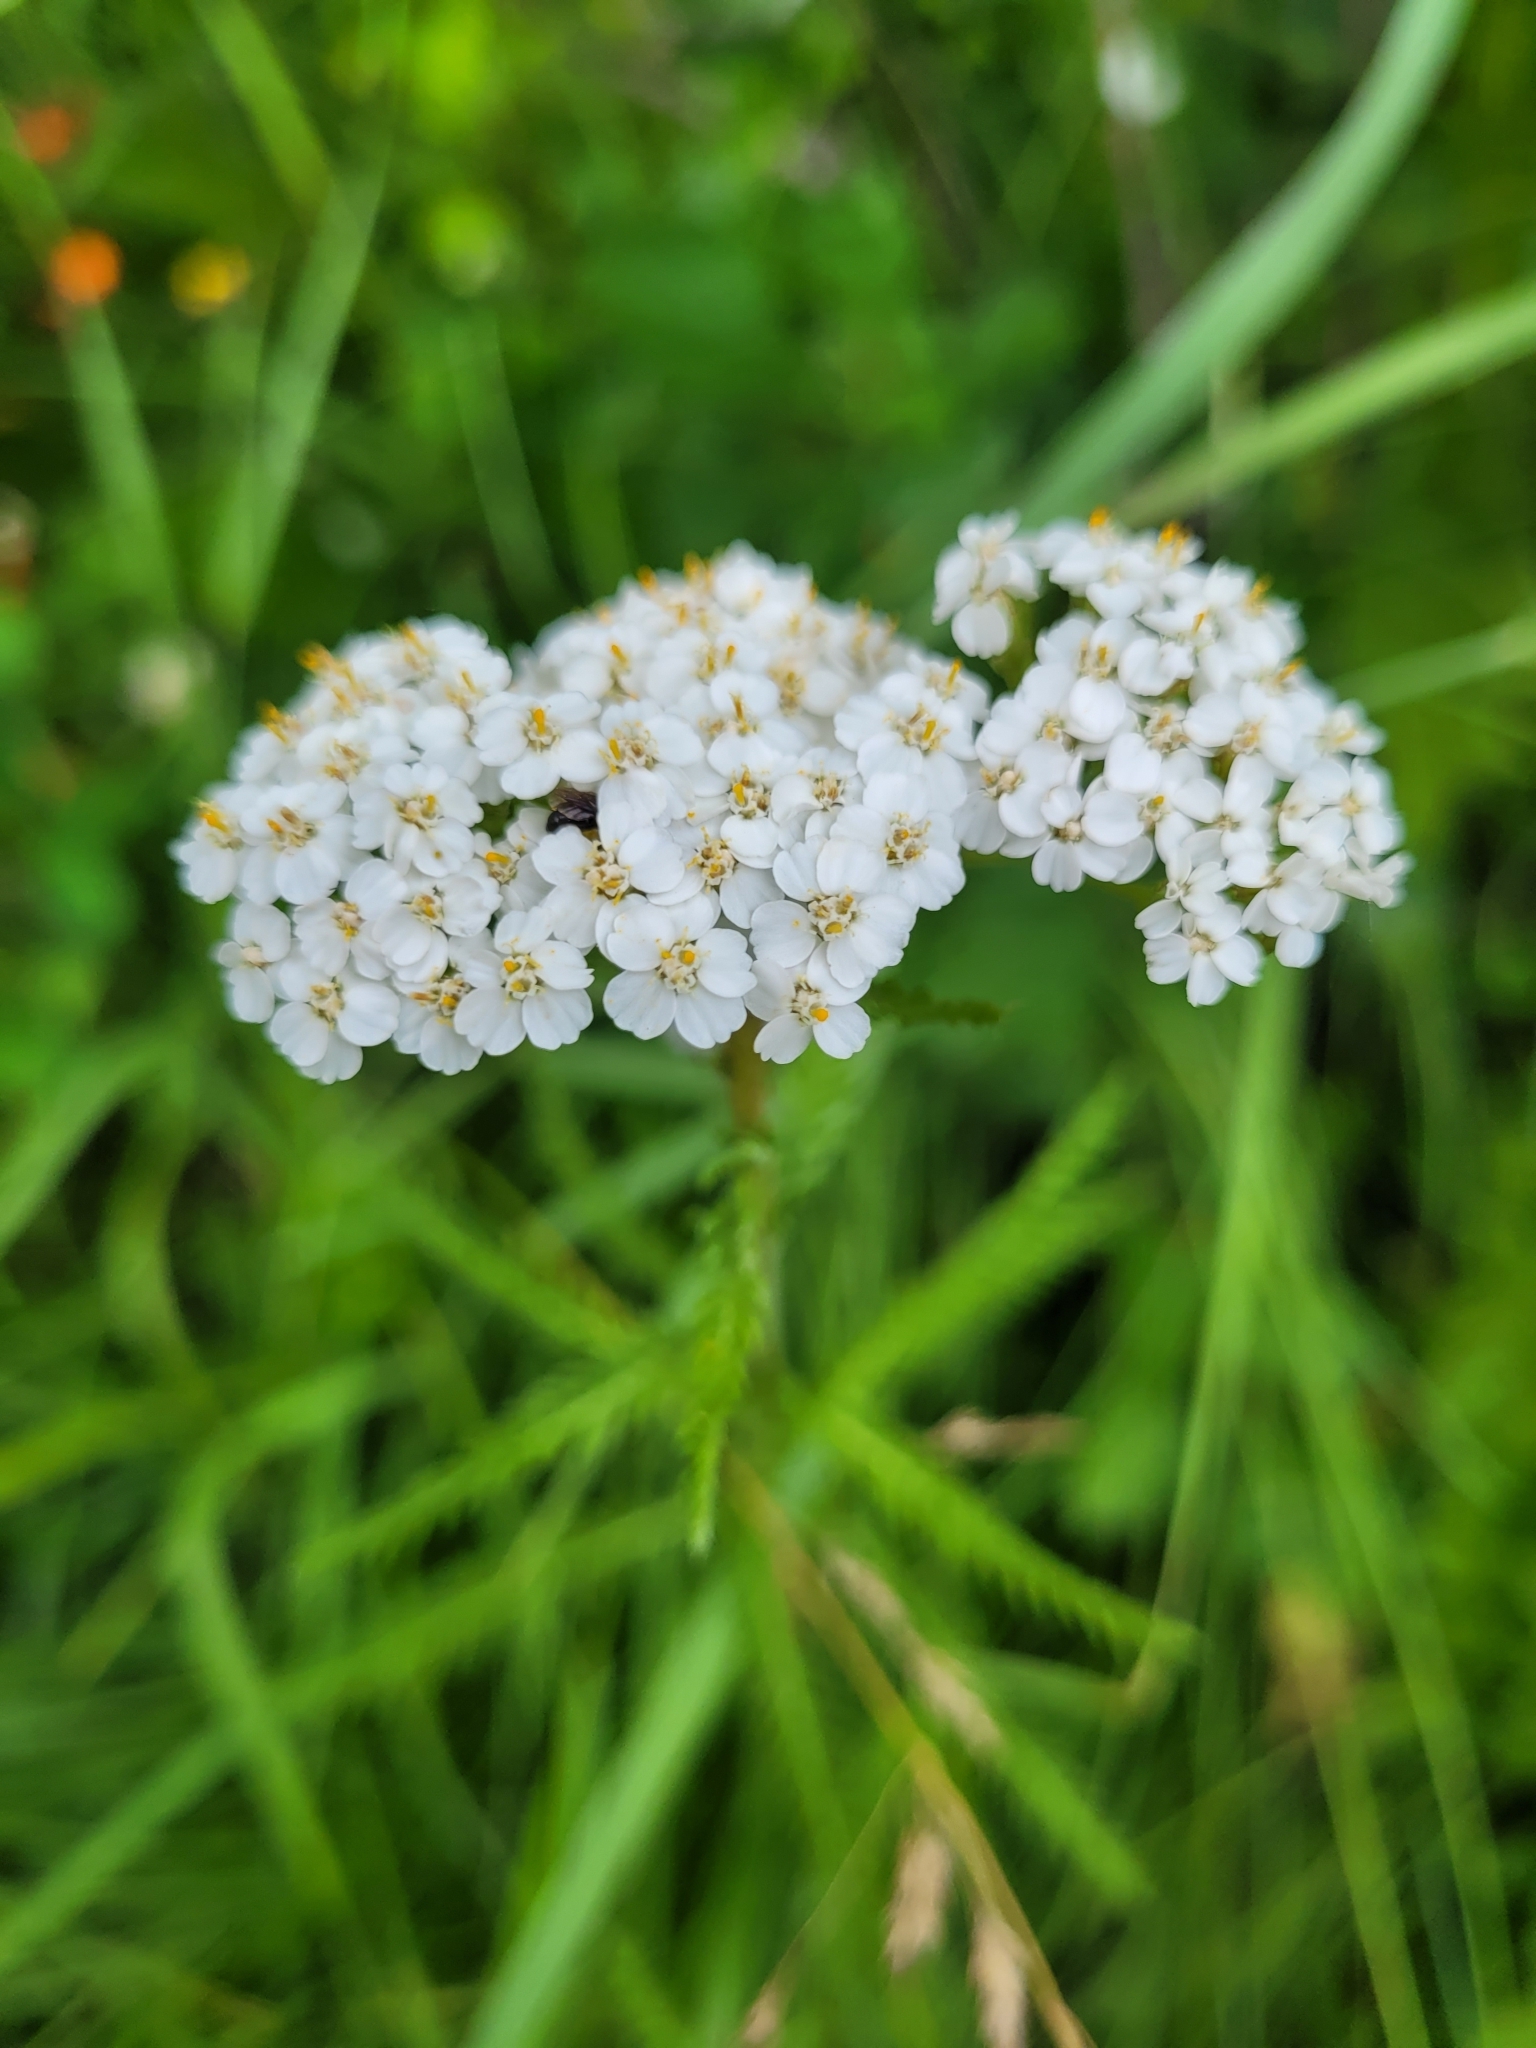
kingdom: Plantae
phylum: Tracheophyta
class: Magnoliopsida
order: Asterales
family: Asteraceae
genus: Achillea
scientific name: Achillea millefolium
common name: Yarrow
